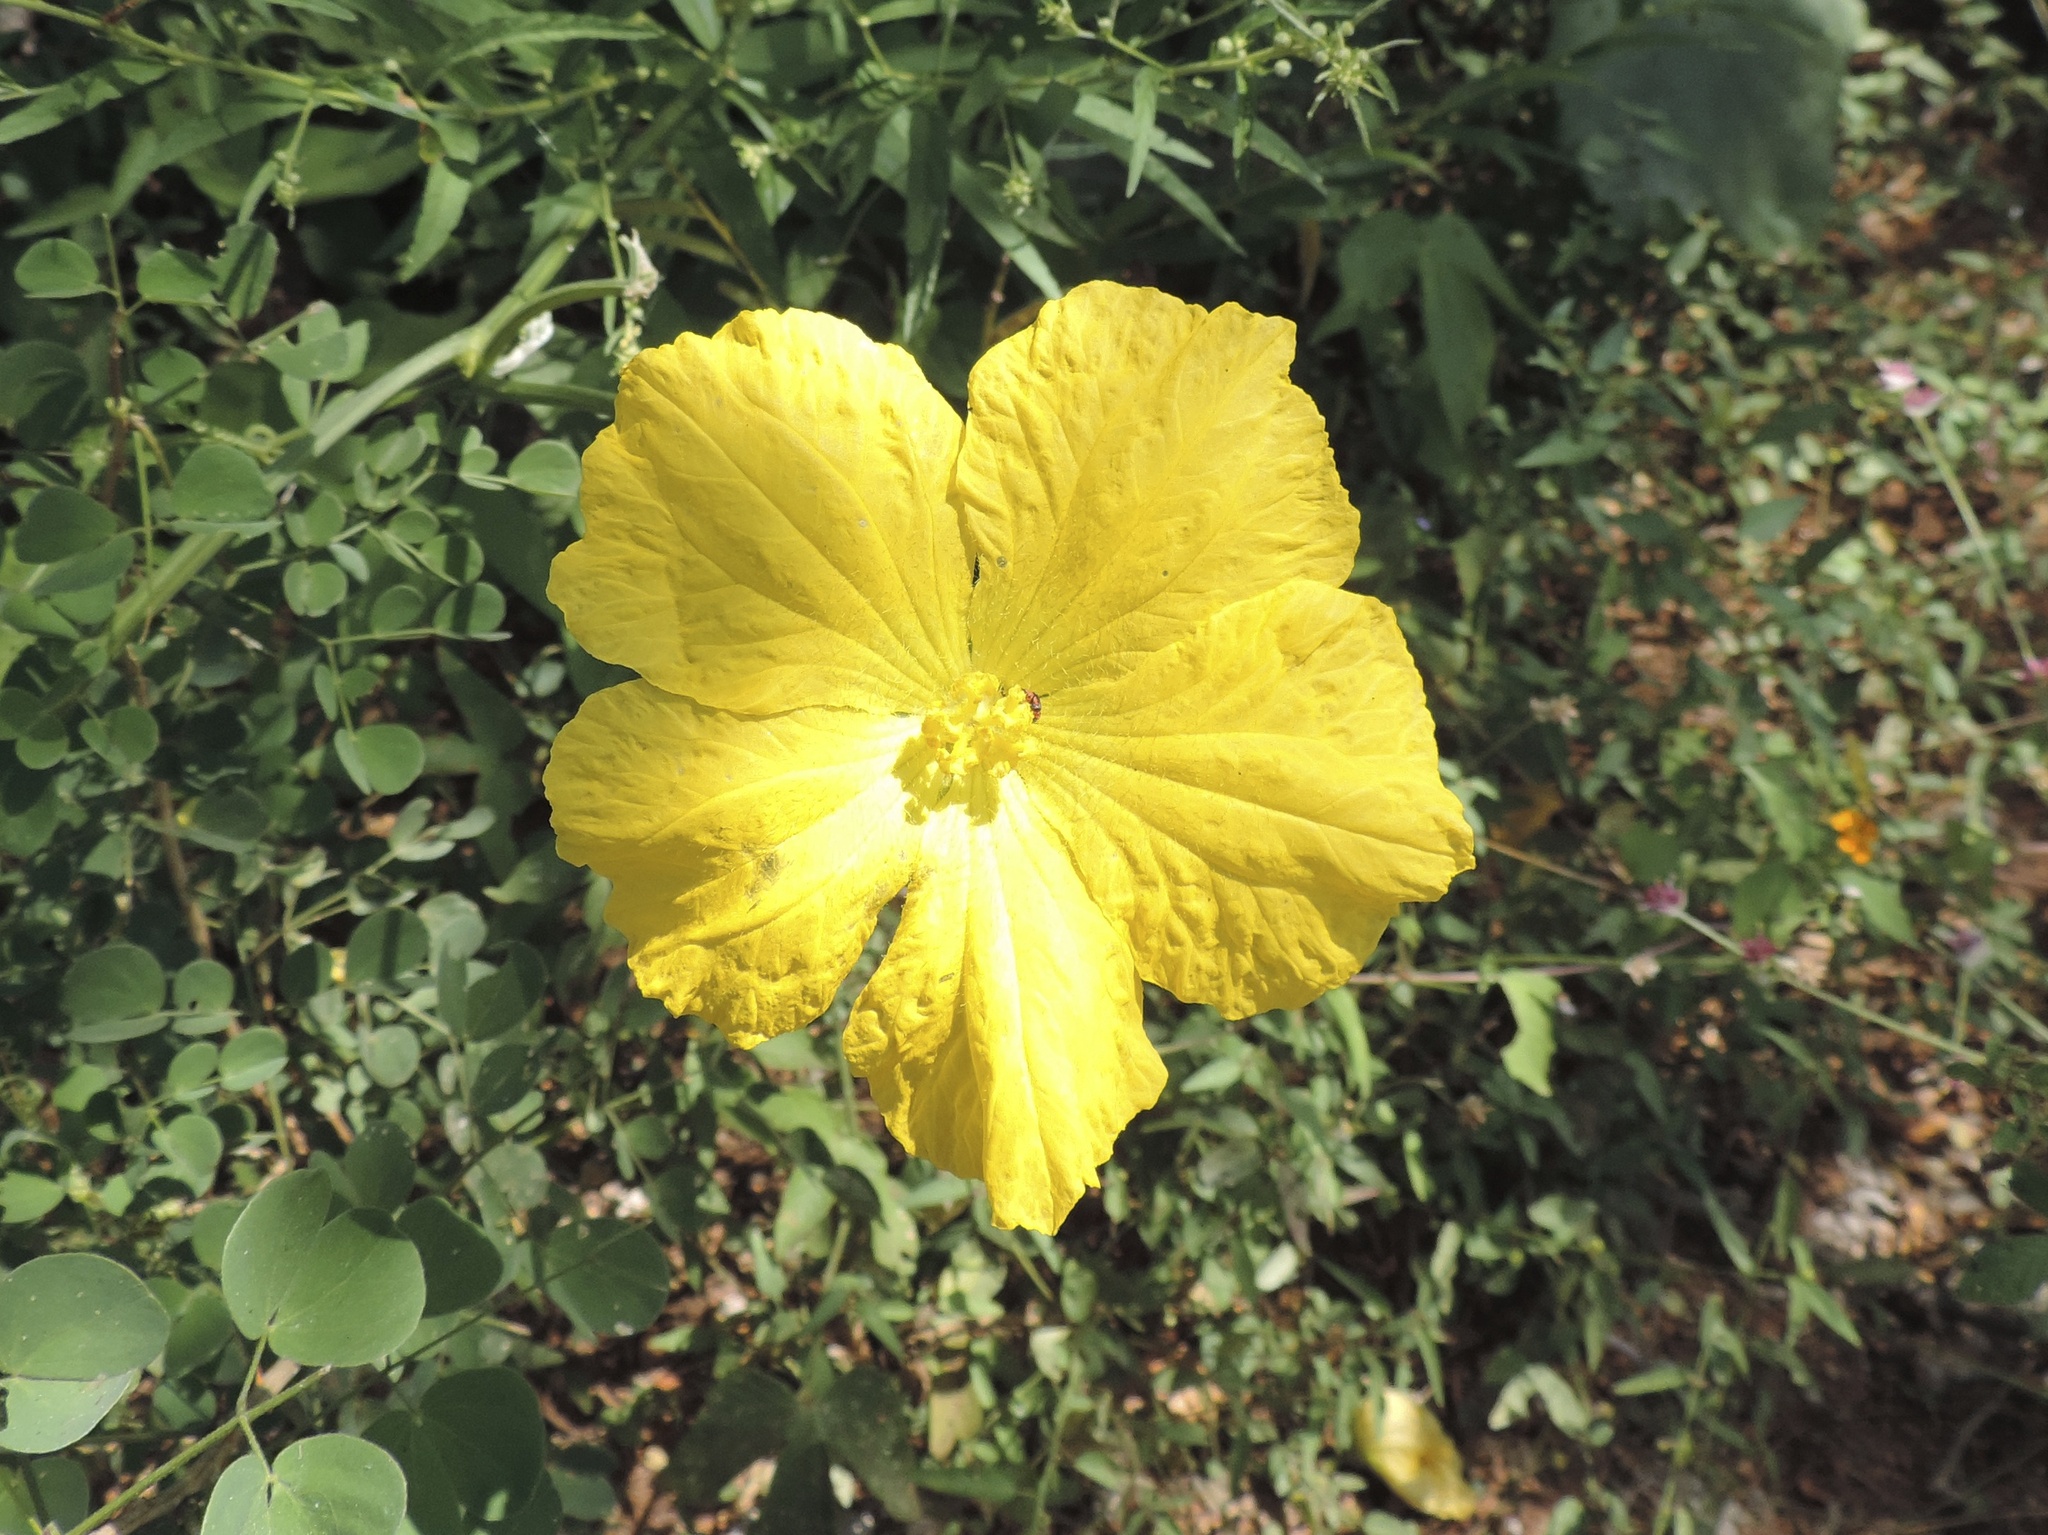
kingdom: Plantae
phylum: Tracheophyta
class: Magnoliopsida
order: Cucurbitales
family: Cucurbitaceae
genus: Luffa
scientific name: Luffa aegyptiaca
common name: Sponge gourd
